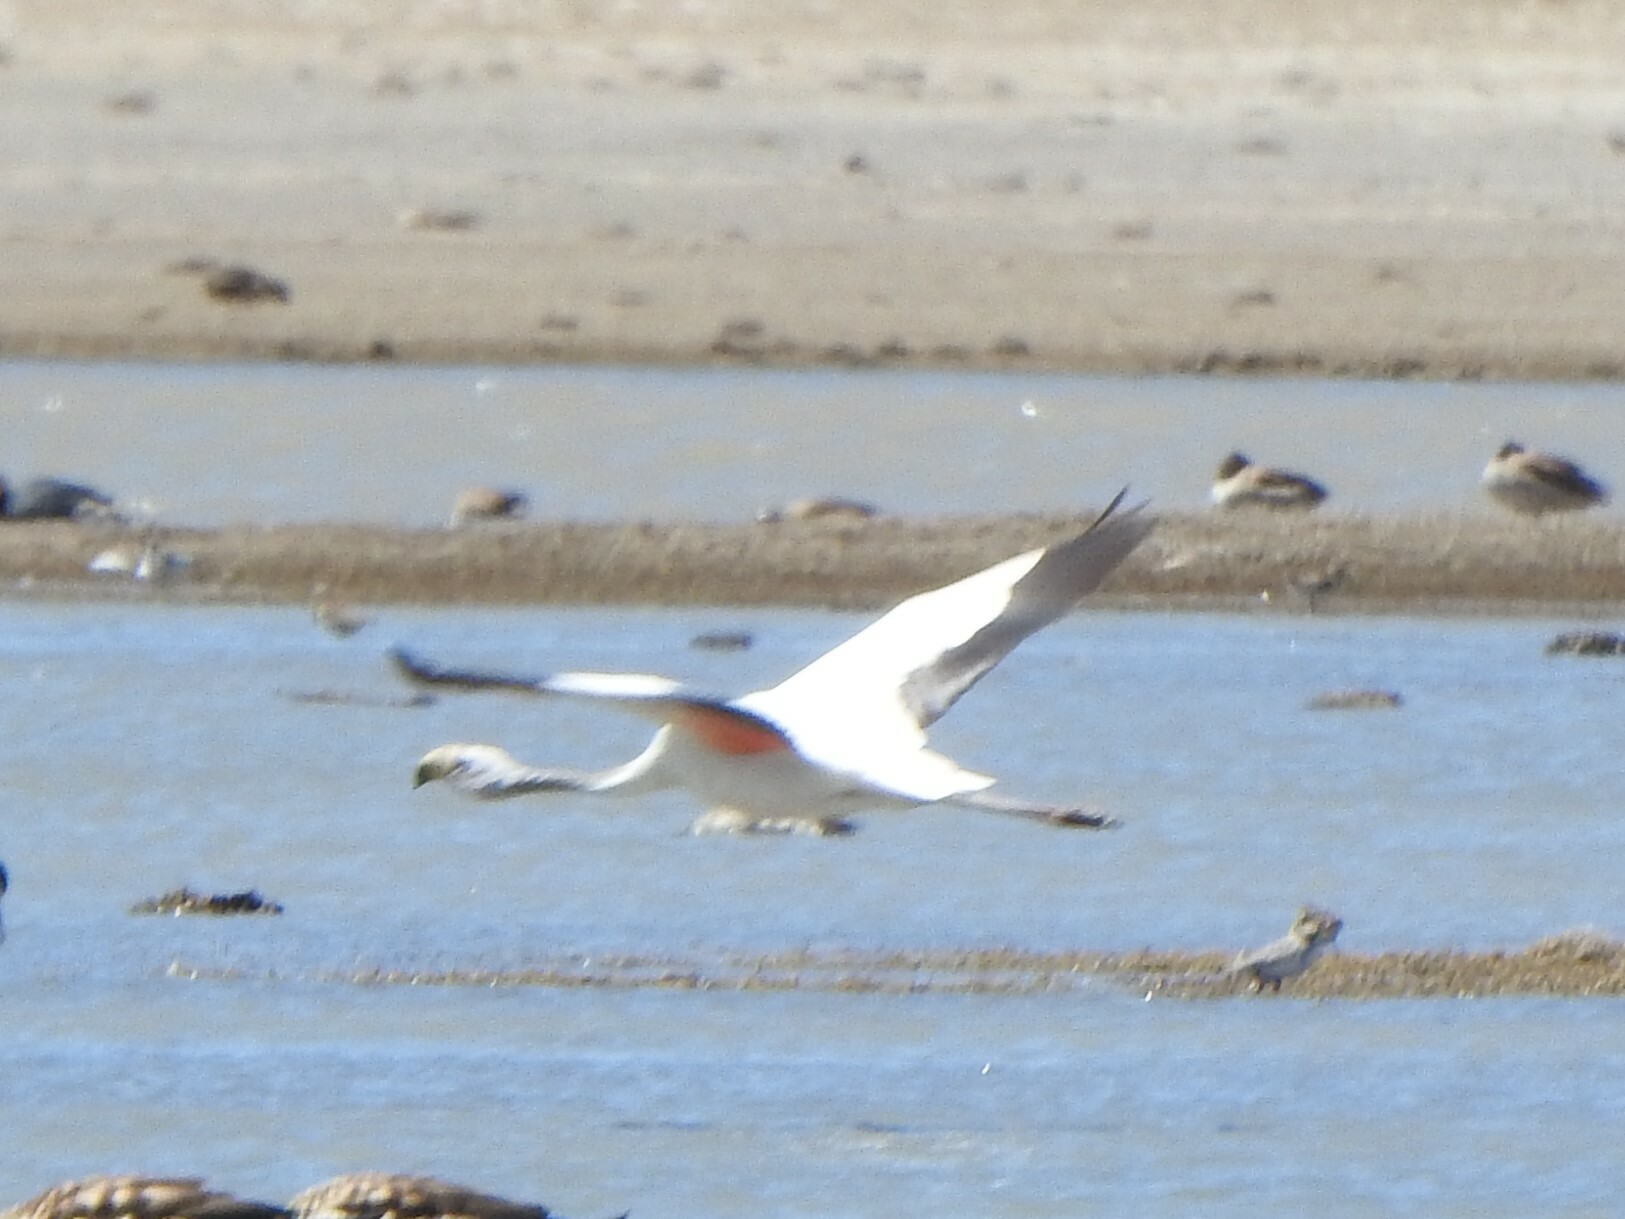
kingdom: Animalia
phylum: Chordata
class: Aves
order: Phoenicopteriformes
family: Phoenicopteridae
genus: Phoenicoparrus
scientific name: Phoenicoparrus andinus
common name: Andean flamingo
